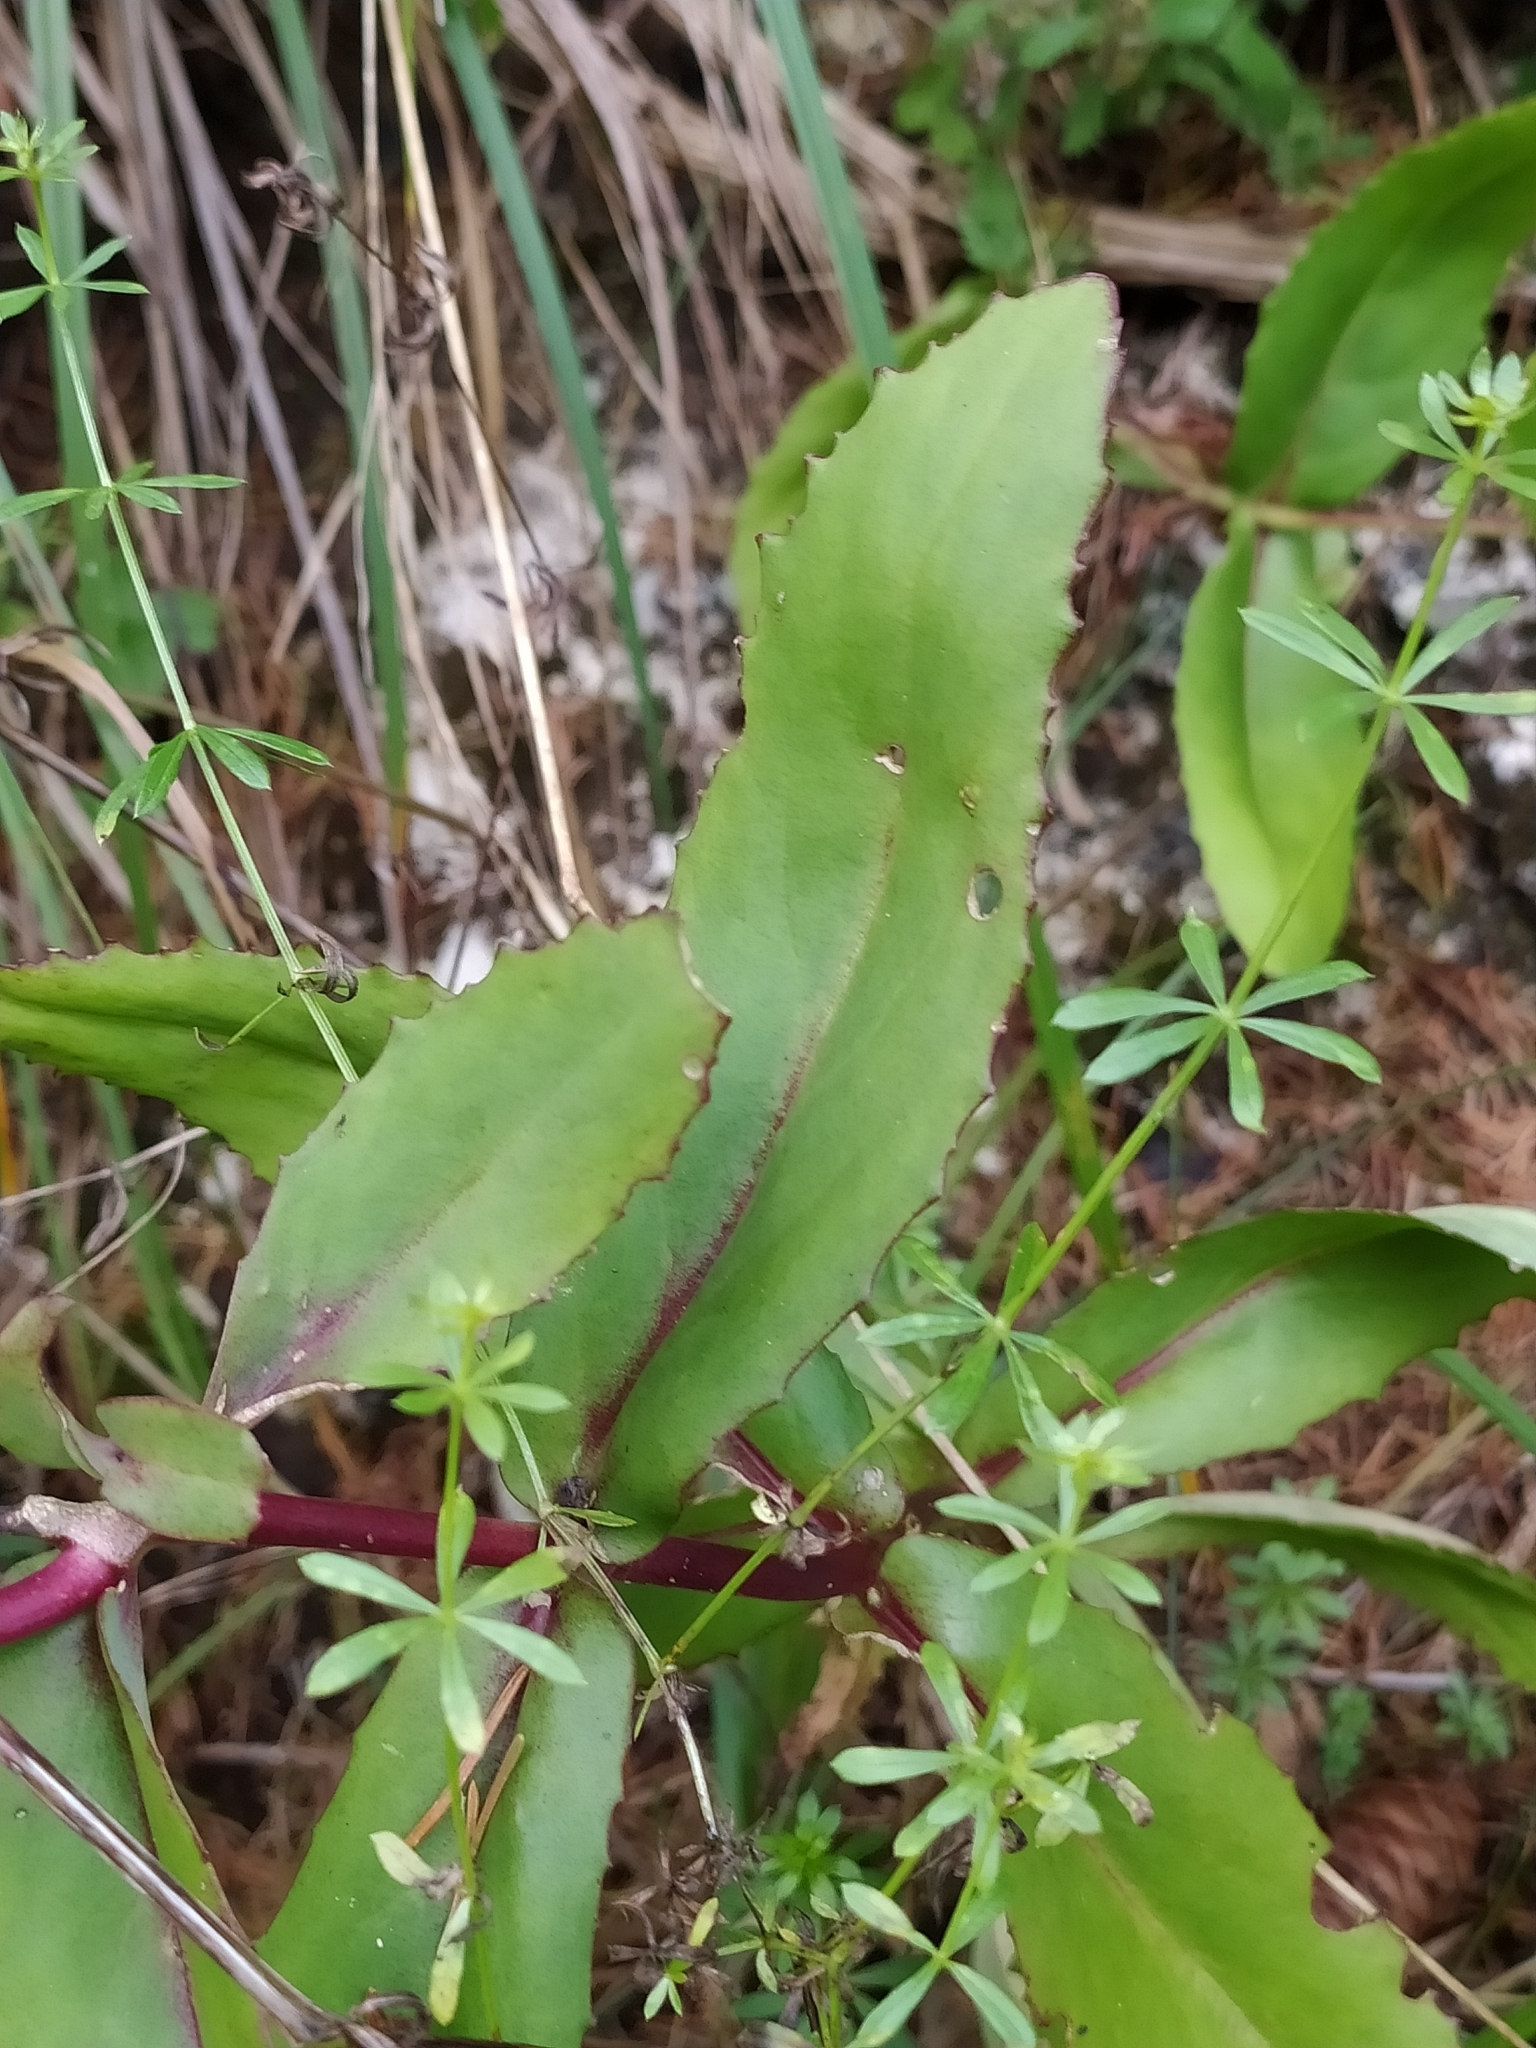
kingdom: Plantae
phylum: Tracheophyta
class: Magnoliopsida
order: Saxifragales
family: Crassulaceae
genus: Hylotelephium
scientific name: Hylotelephium maximum
